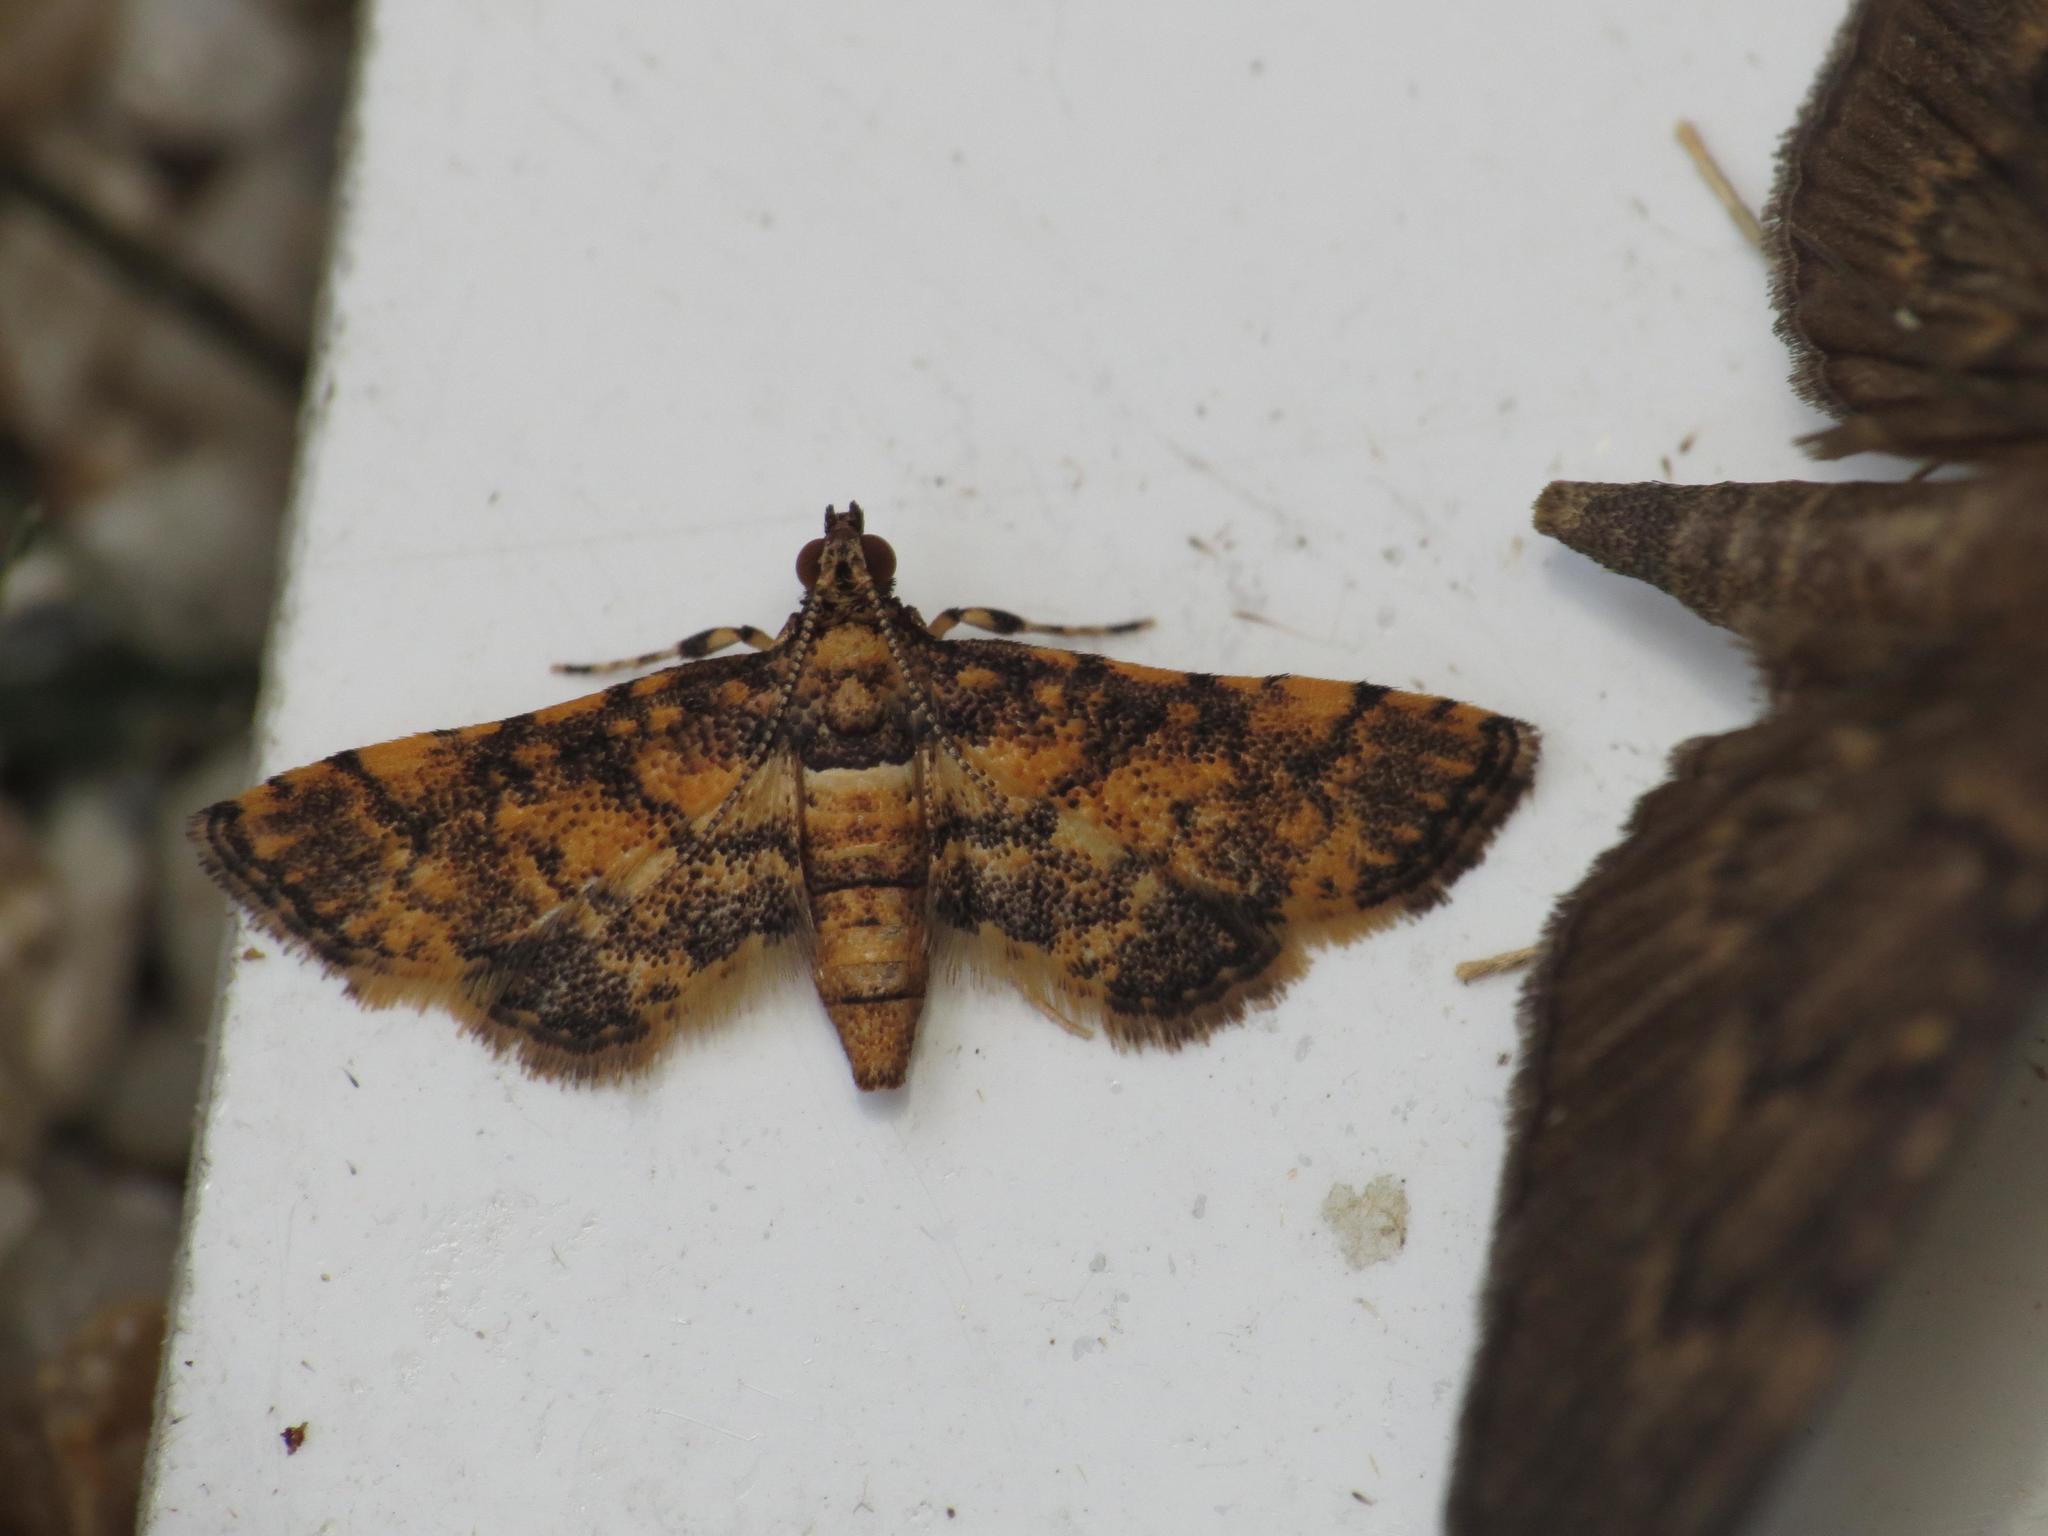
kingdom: Animalia
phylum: Arthropoda
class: Insecta
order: Lepidoptera
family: Crambidae
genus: Metasia
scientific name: Metasia tiasalis
